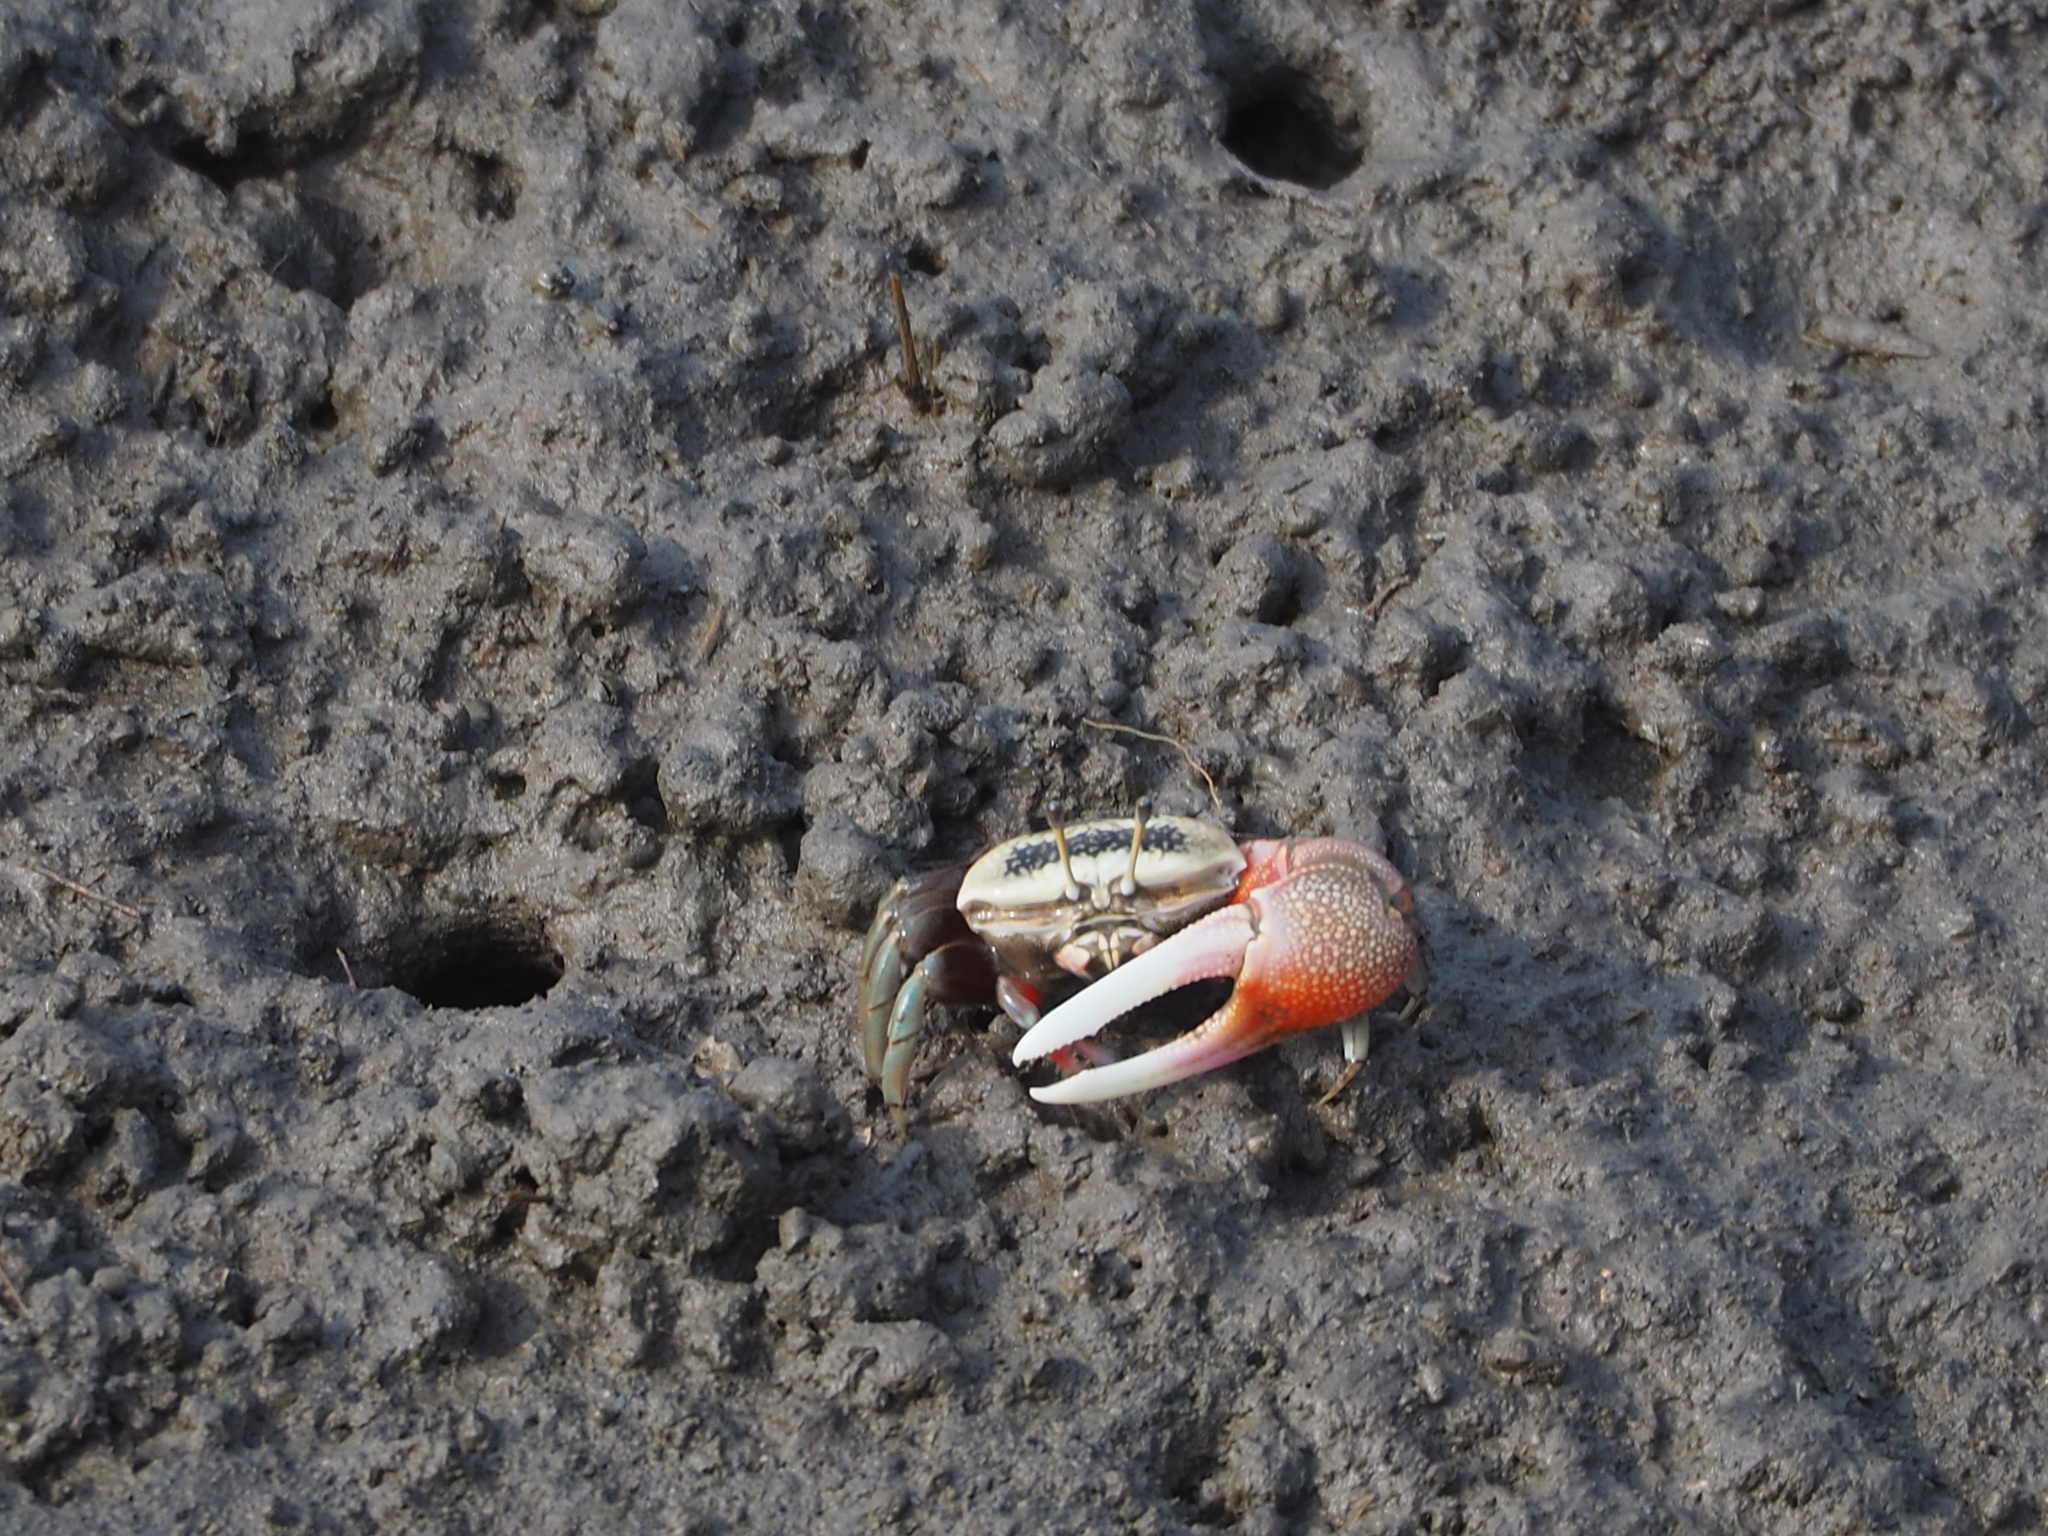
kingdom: Animalia
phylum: Arthropoda
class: Malacostraca
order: Decapoda
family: Ocypodidae
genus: Tubuca
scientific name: Tubuca arcuata
